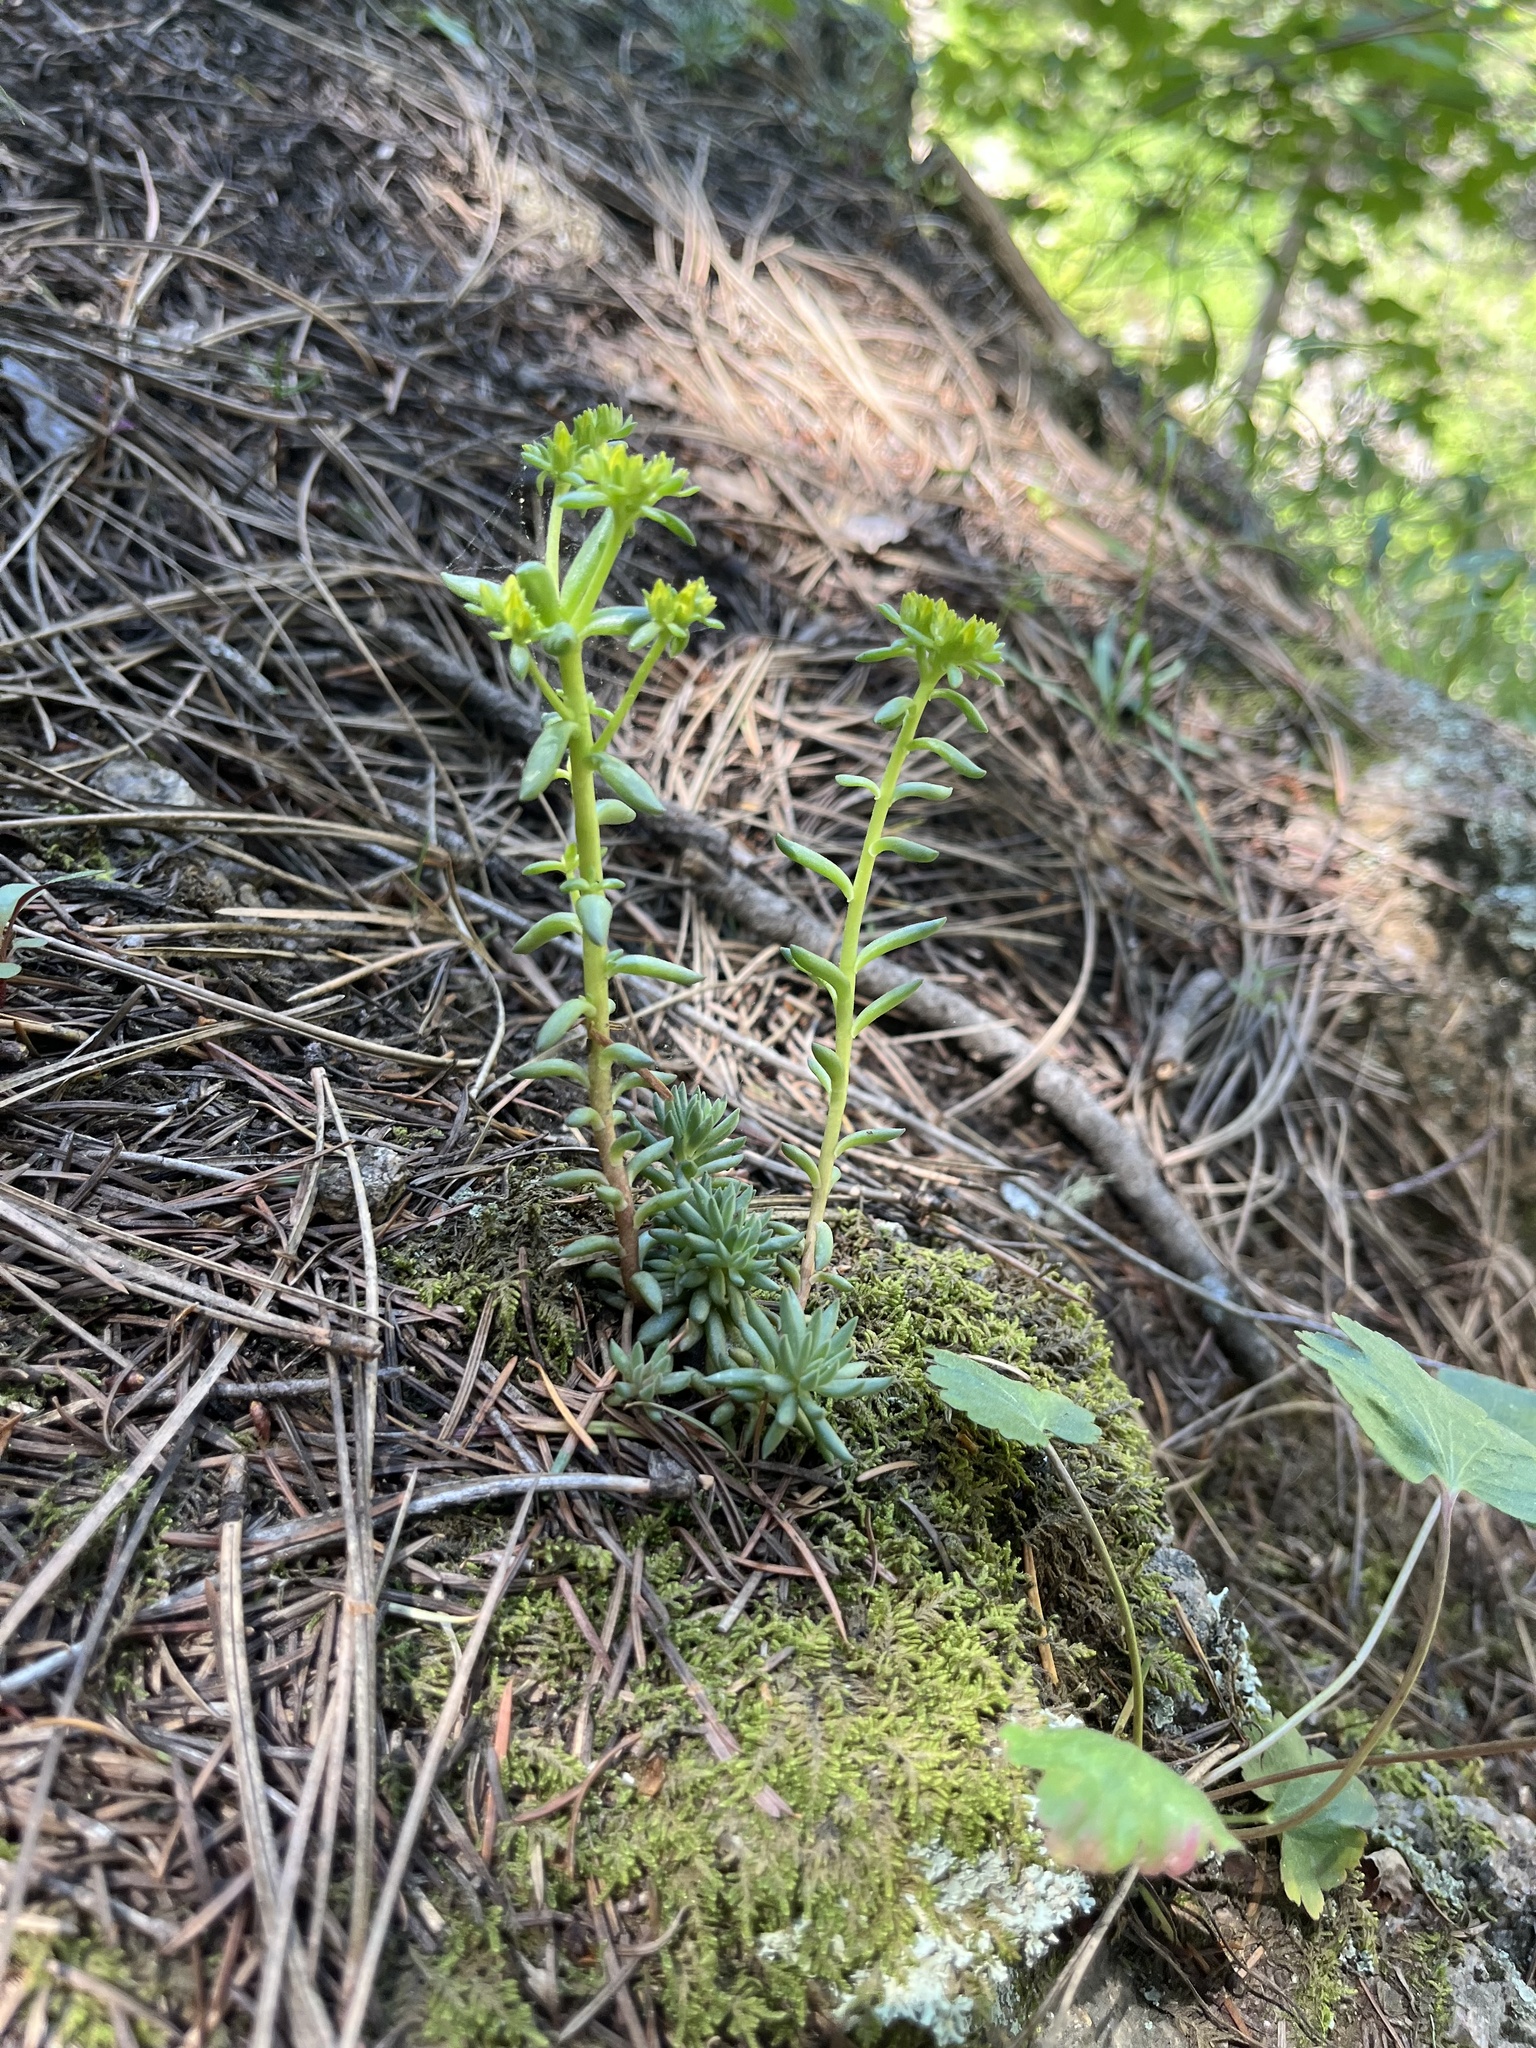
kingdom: Plantae
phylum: Tracheophyta
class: Magnoliopsida
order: Saxifragales
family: Crassulaceae
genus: Sedum
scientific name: Sedum lanceolatum
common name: Common stonecrop
